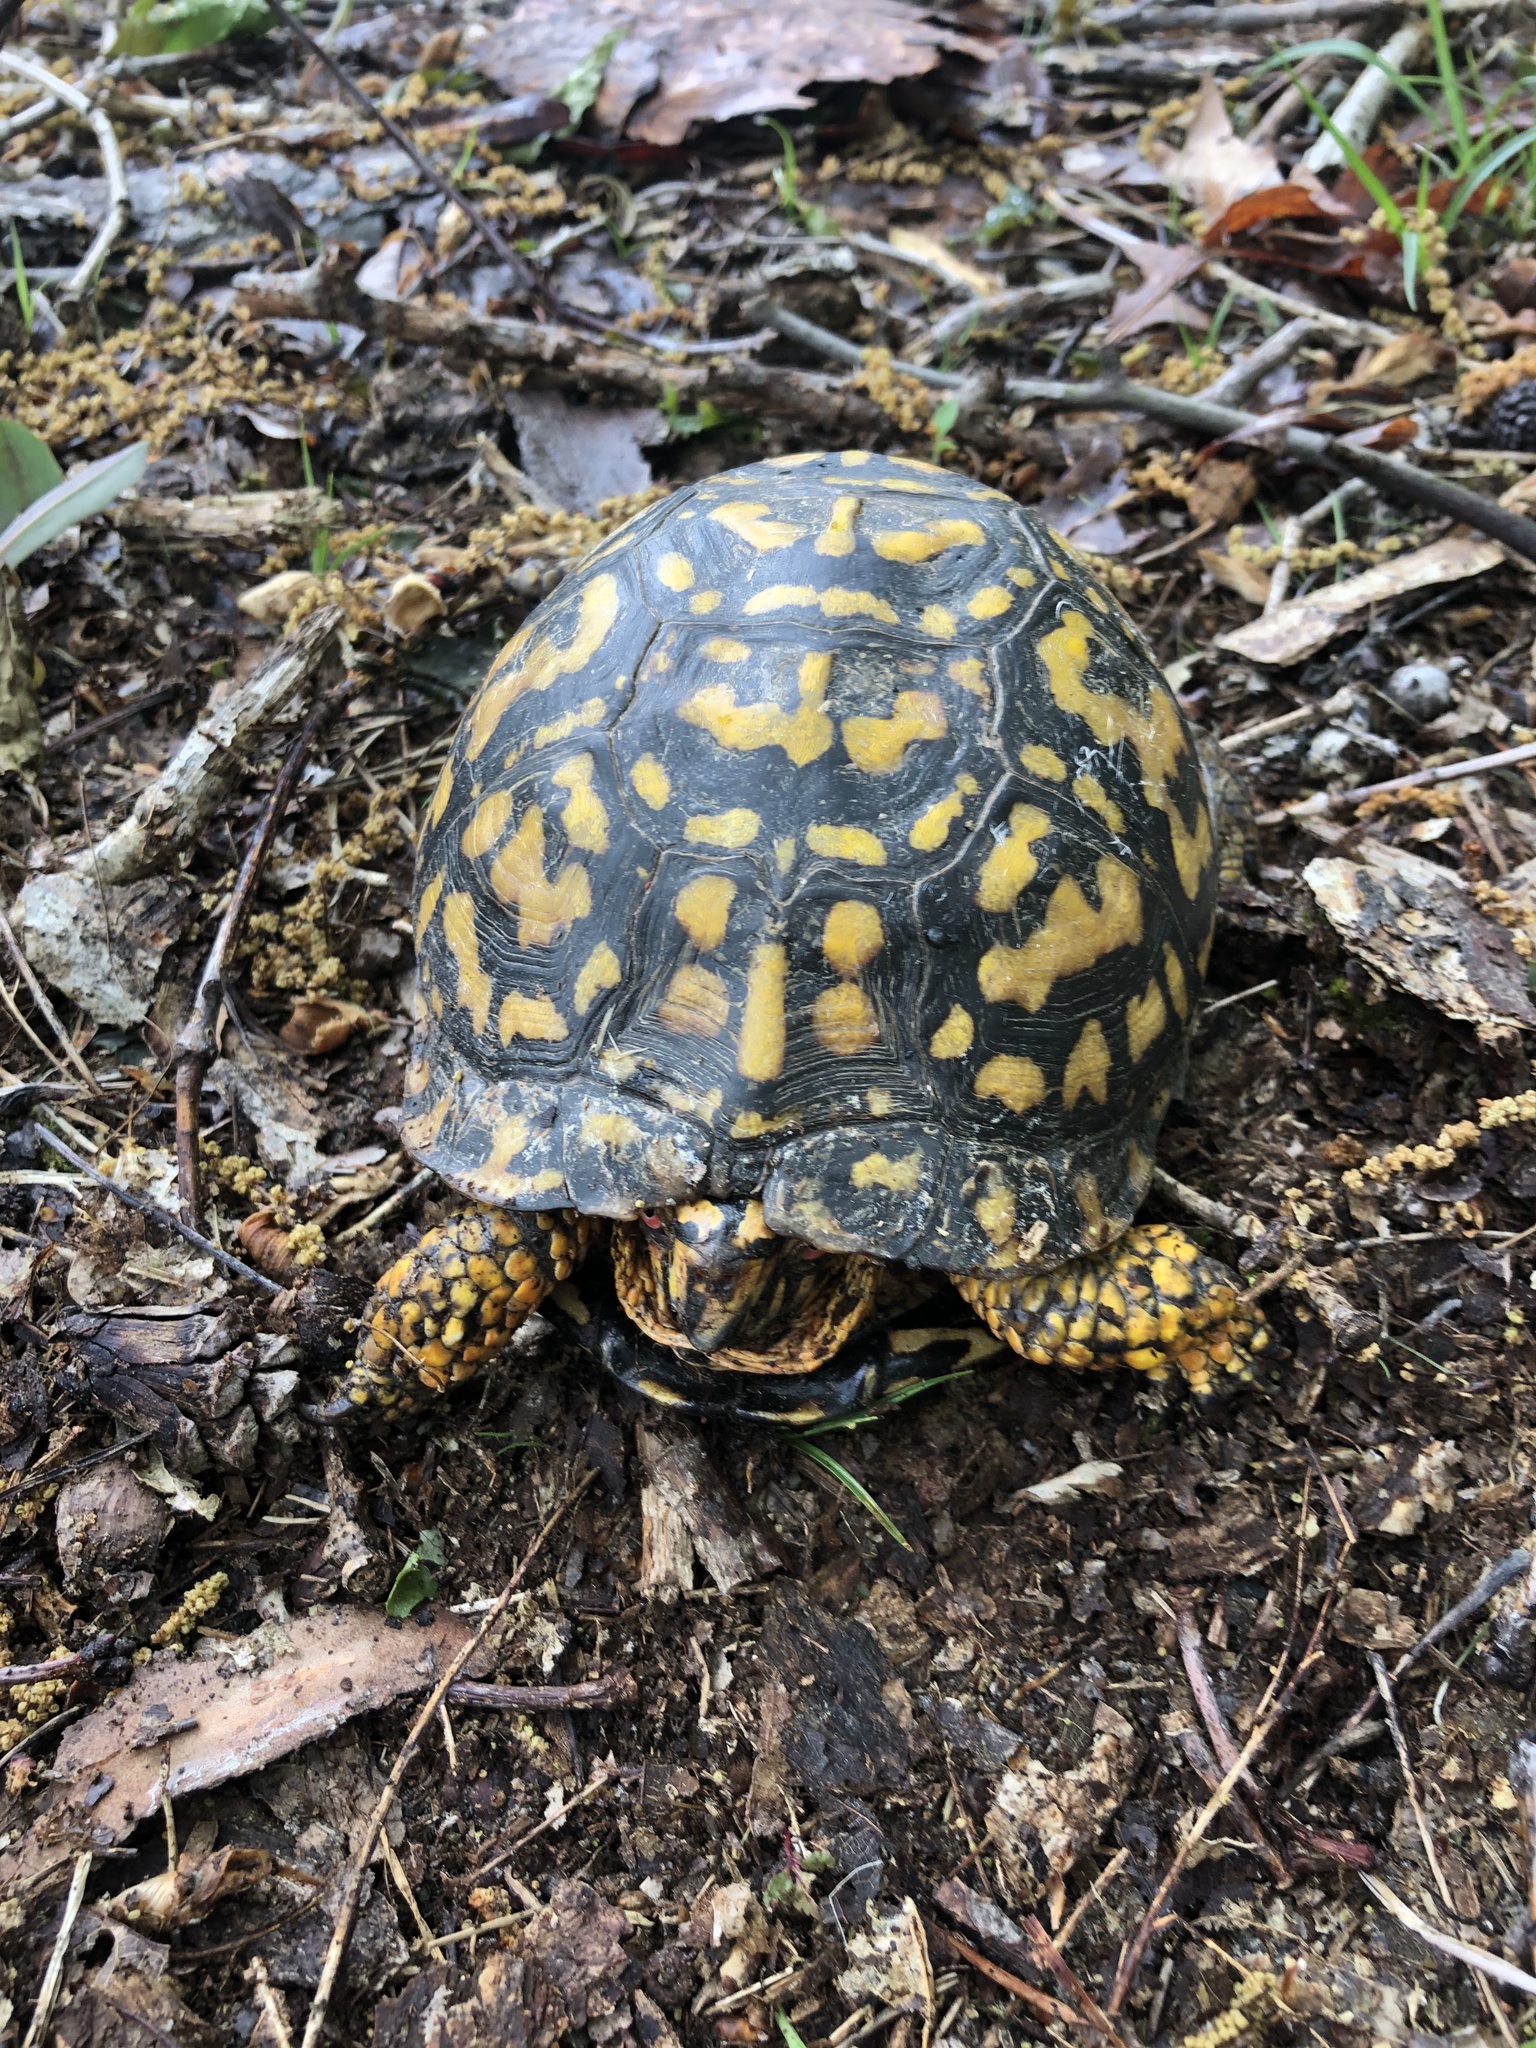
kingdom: Animalia
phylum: Chordata
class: Testudines
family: Emydidae
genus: Terrapene
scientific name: Terrapene carolina
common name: Common box turtle
